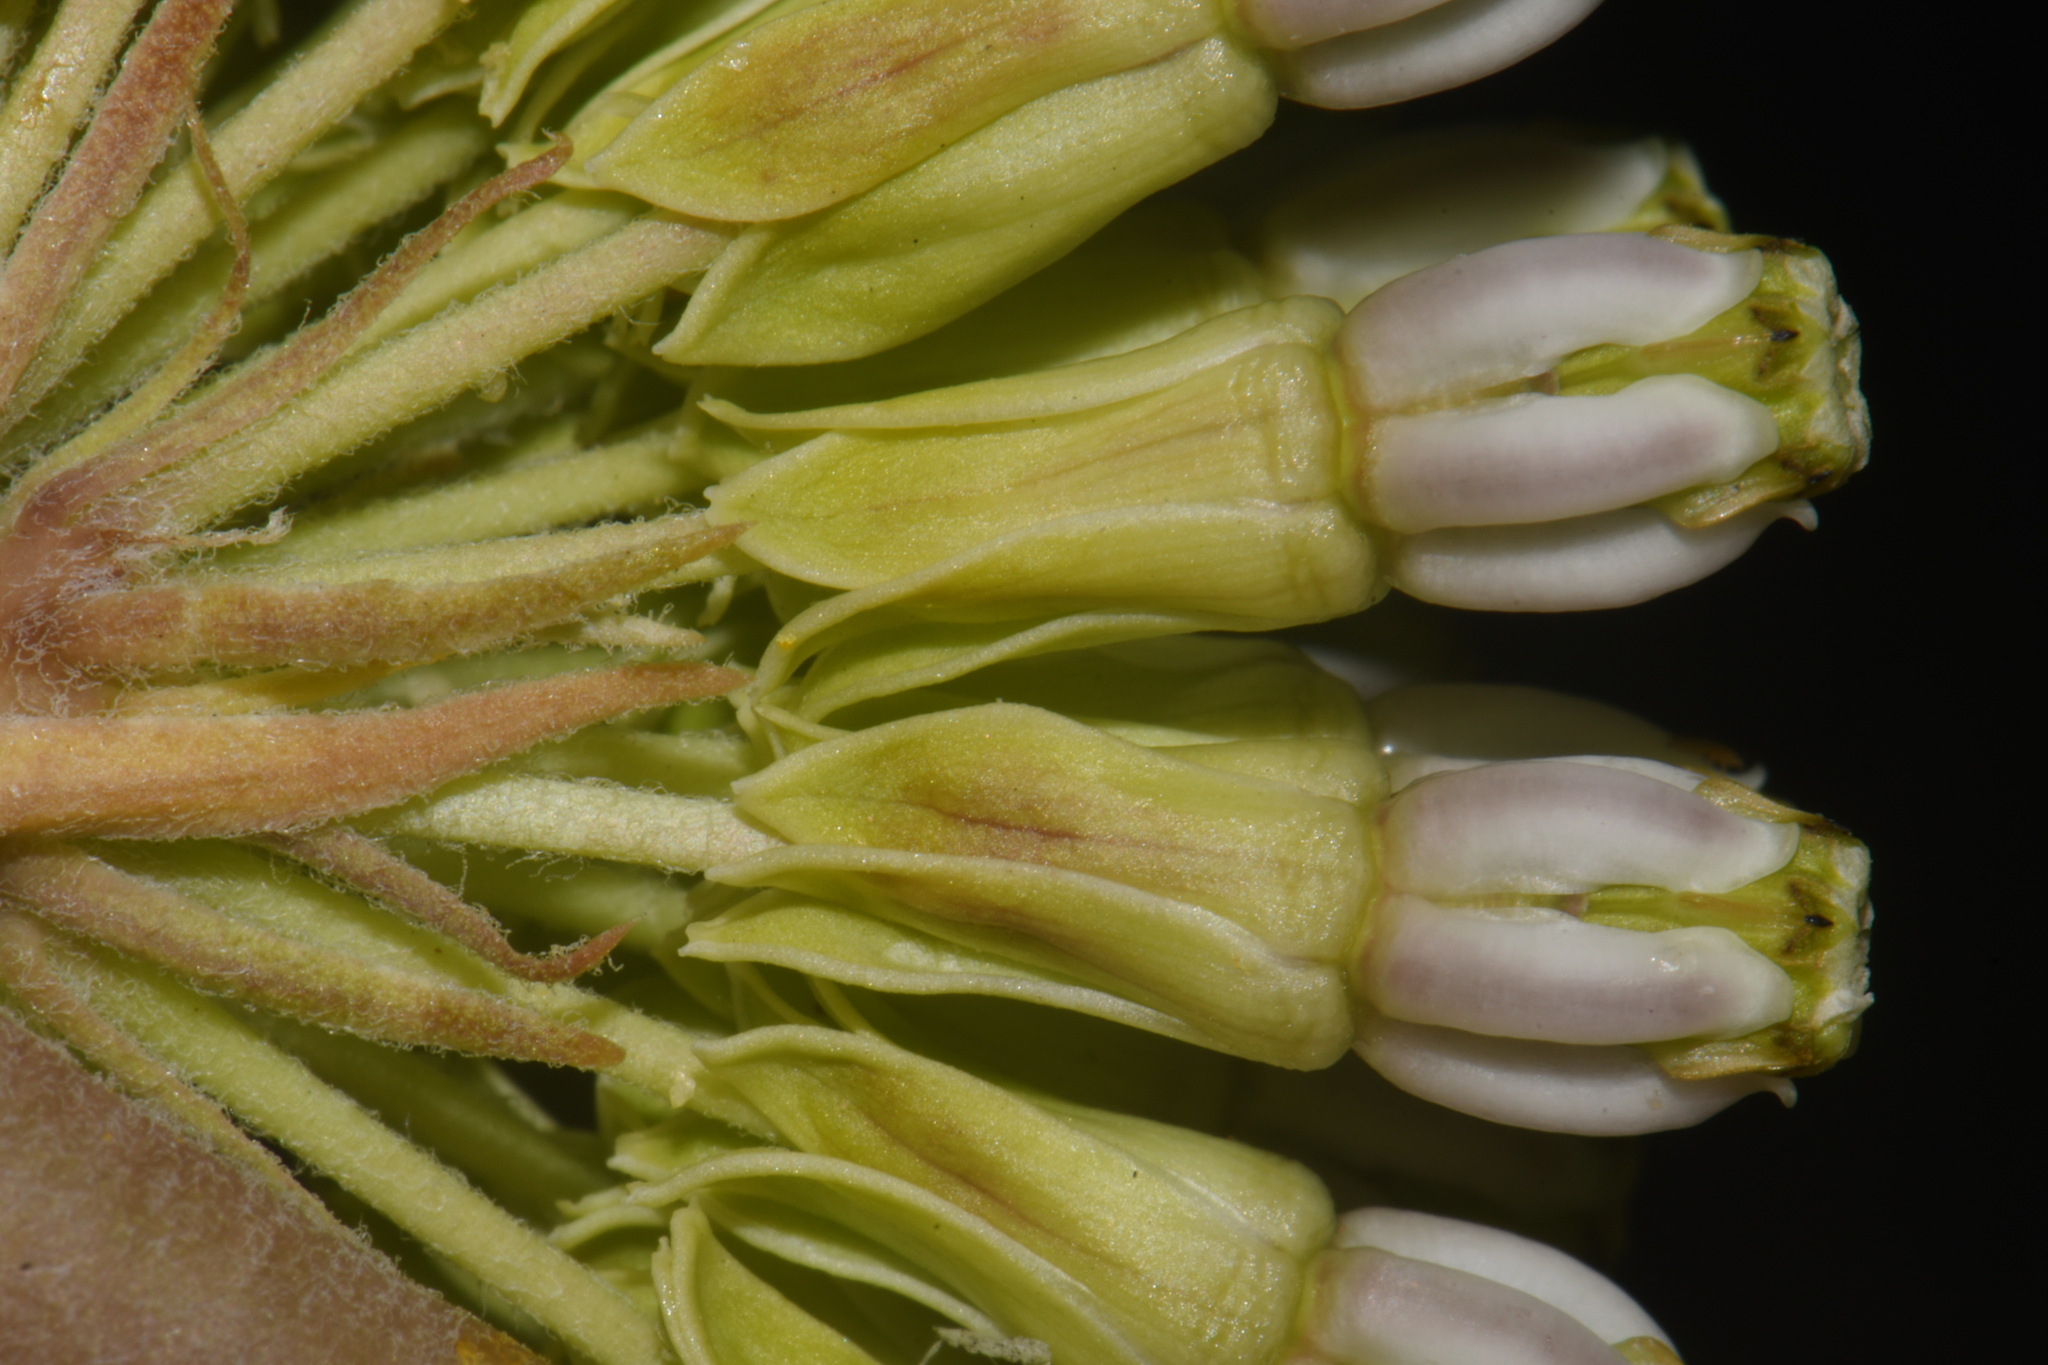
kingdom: Plantae
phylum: Tracheophyta
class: Magnoliopsida
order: Gentianales
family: Apocynaceae
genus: Asclepias
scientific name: Asclepias viridiflora
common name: Green comet milkweed
